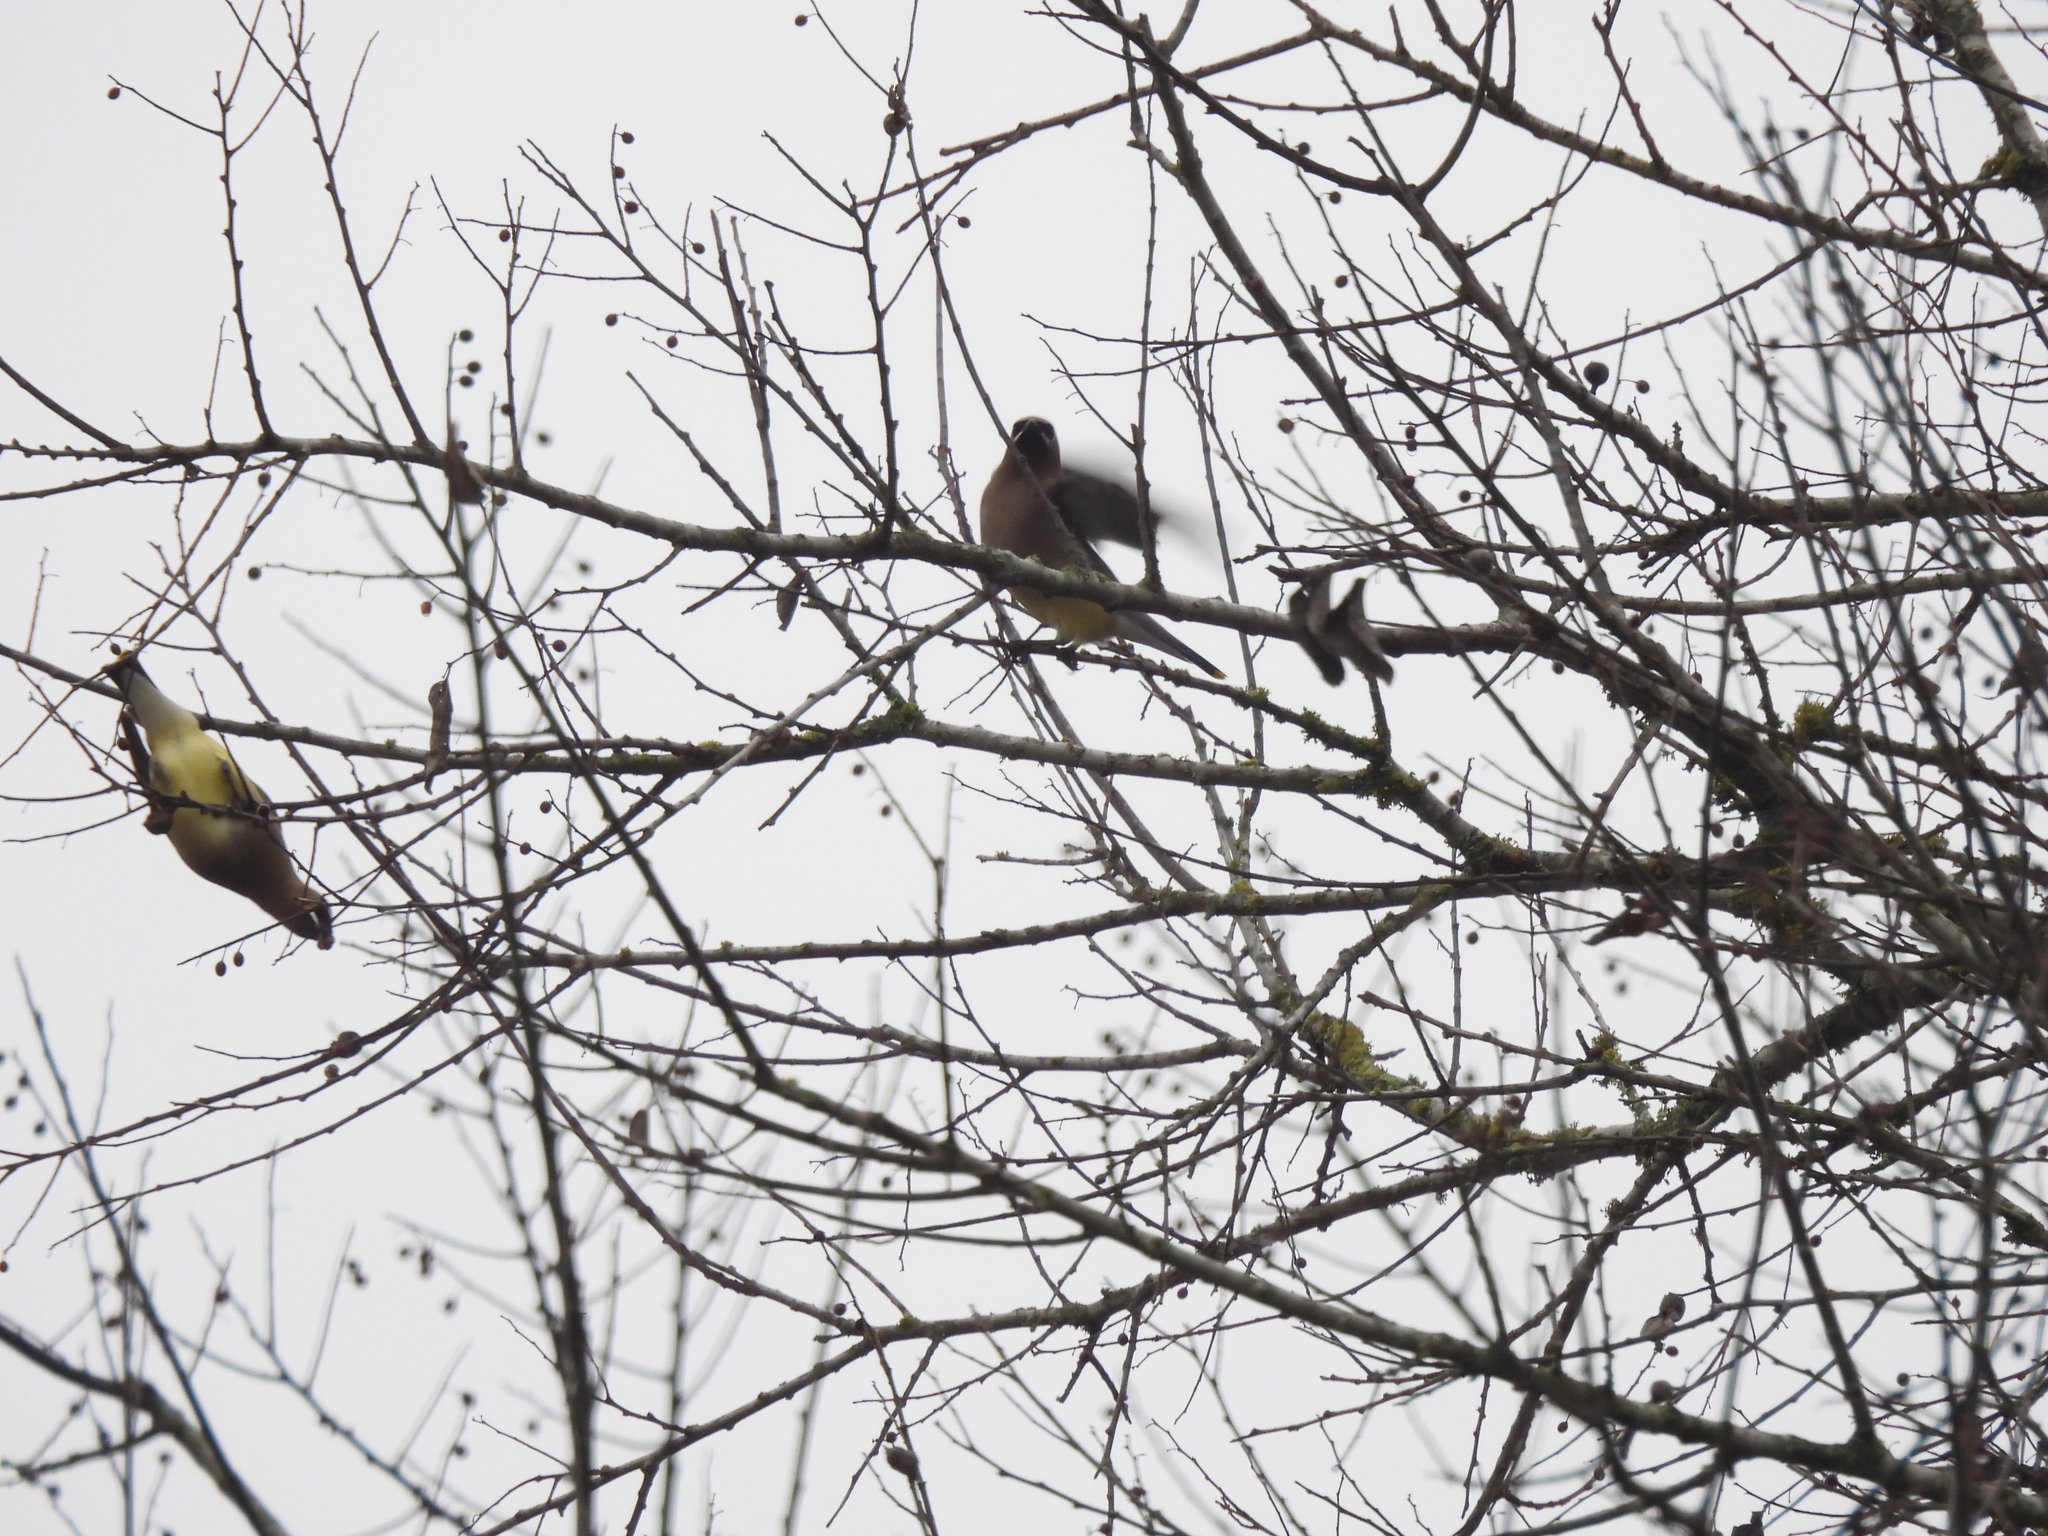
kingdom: Animalia
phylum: Chordata
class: Aves
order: Passeriformes
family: Bombycillidae
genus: Bombycilla
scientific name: Bombycilla cedrorum
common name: Cedar waxwing
